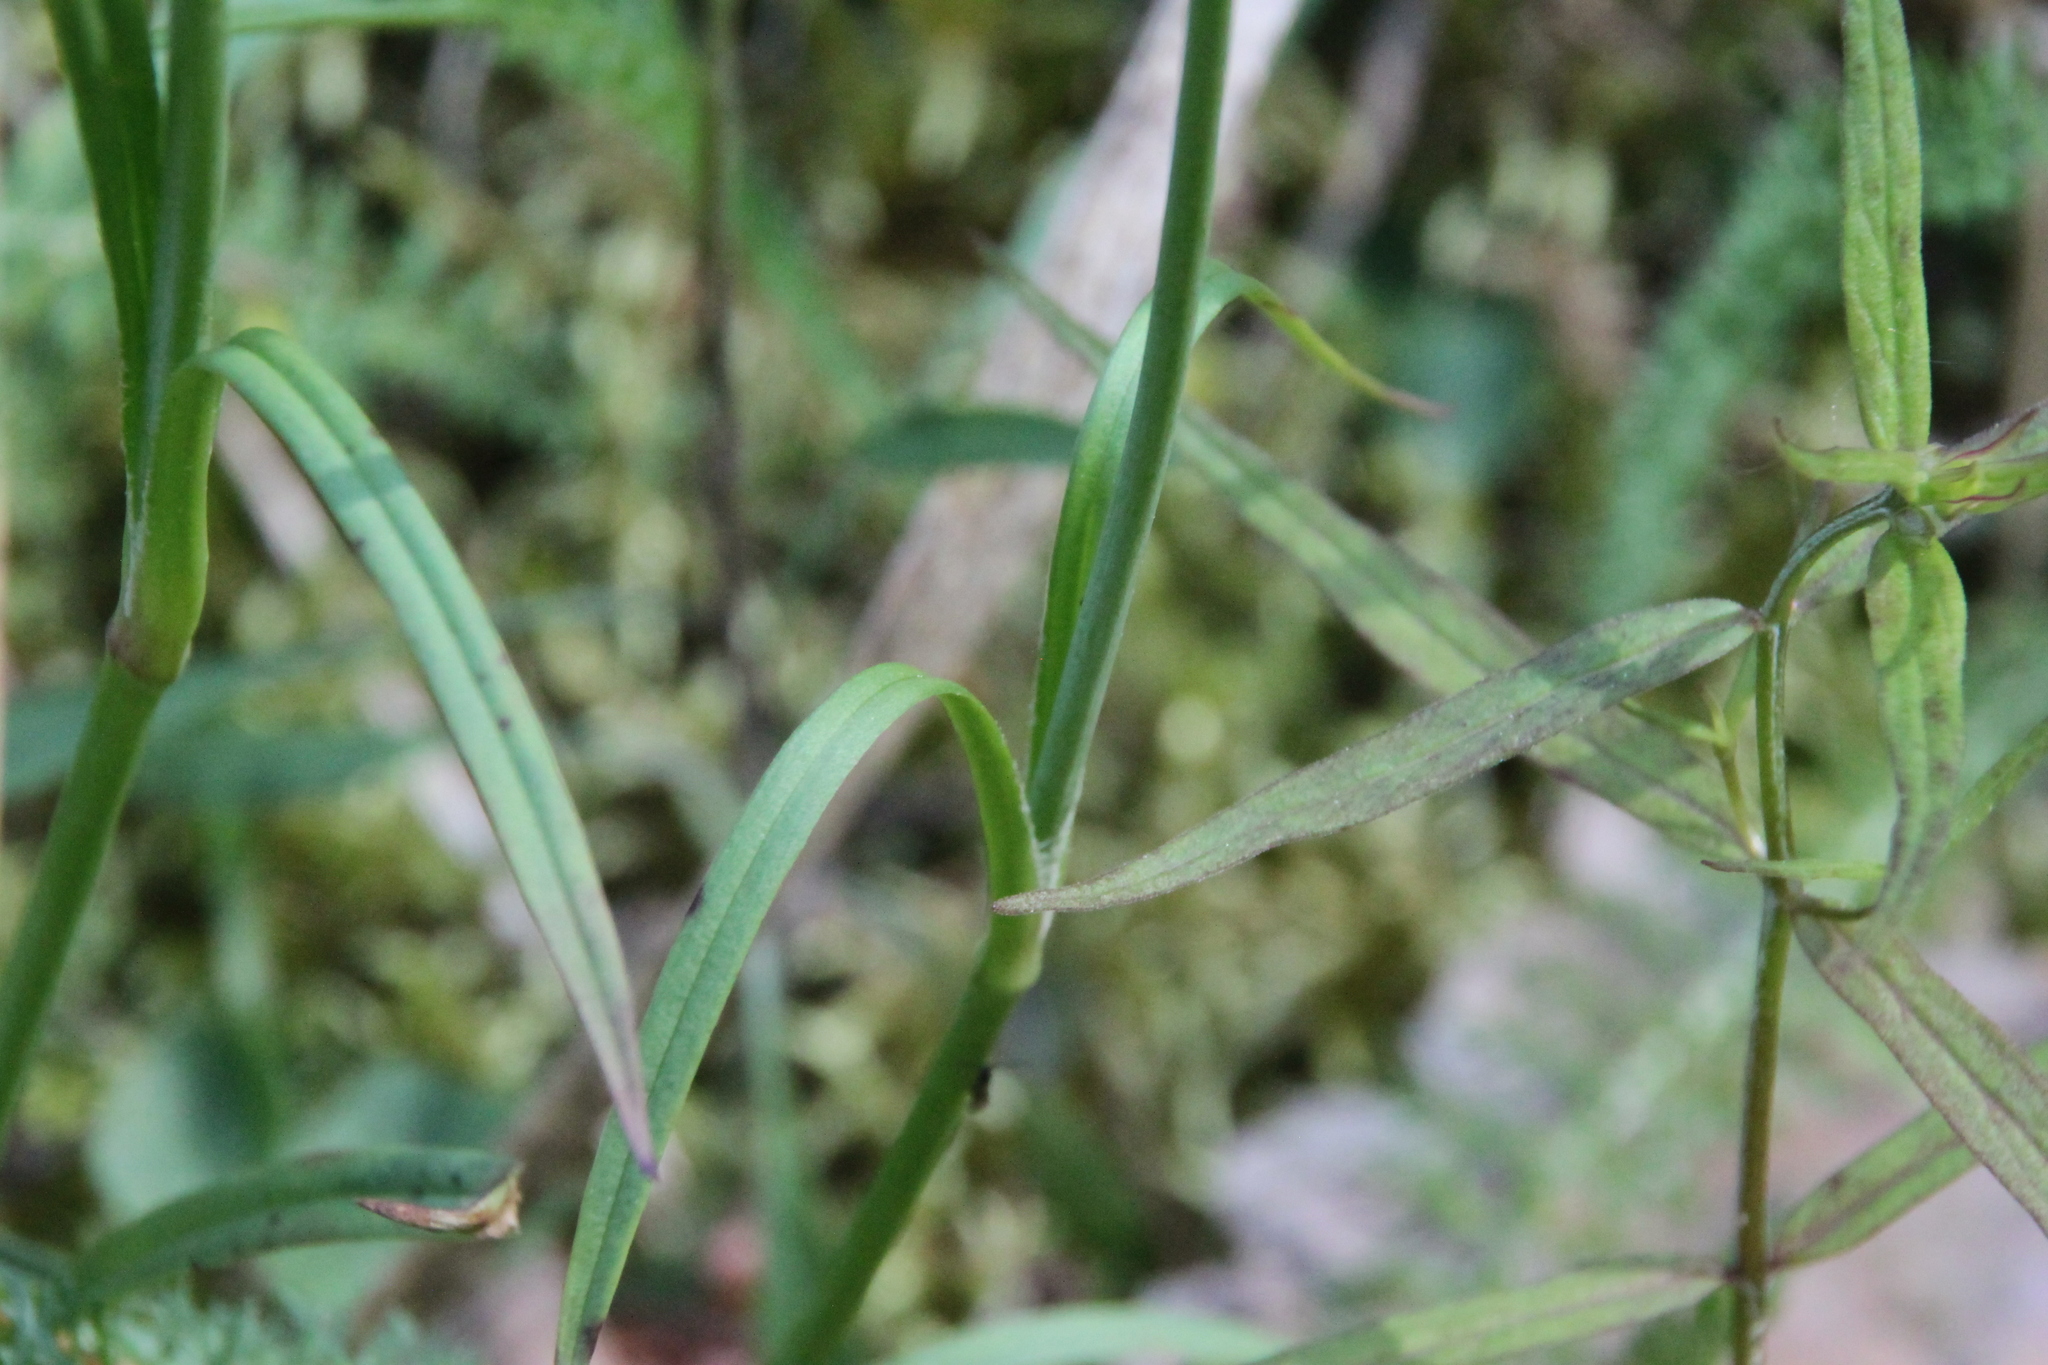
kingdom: Plantae
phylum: Tracheophyta
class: Magnoliopsida
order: Caryophyllales
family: Caryophyllaceae
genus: Viscaria
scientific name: Viscaria vulgaris
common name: Clammy campion
